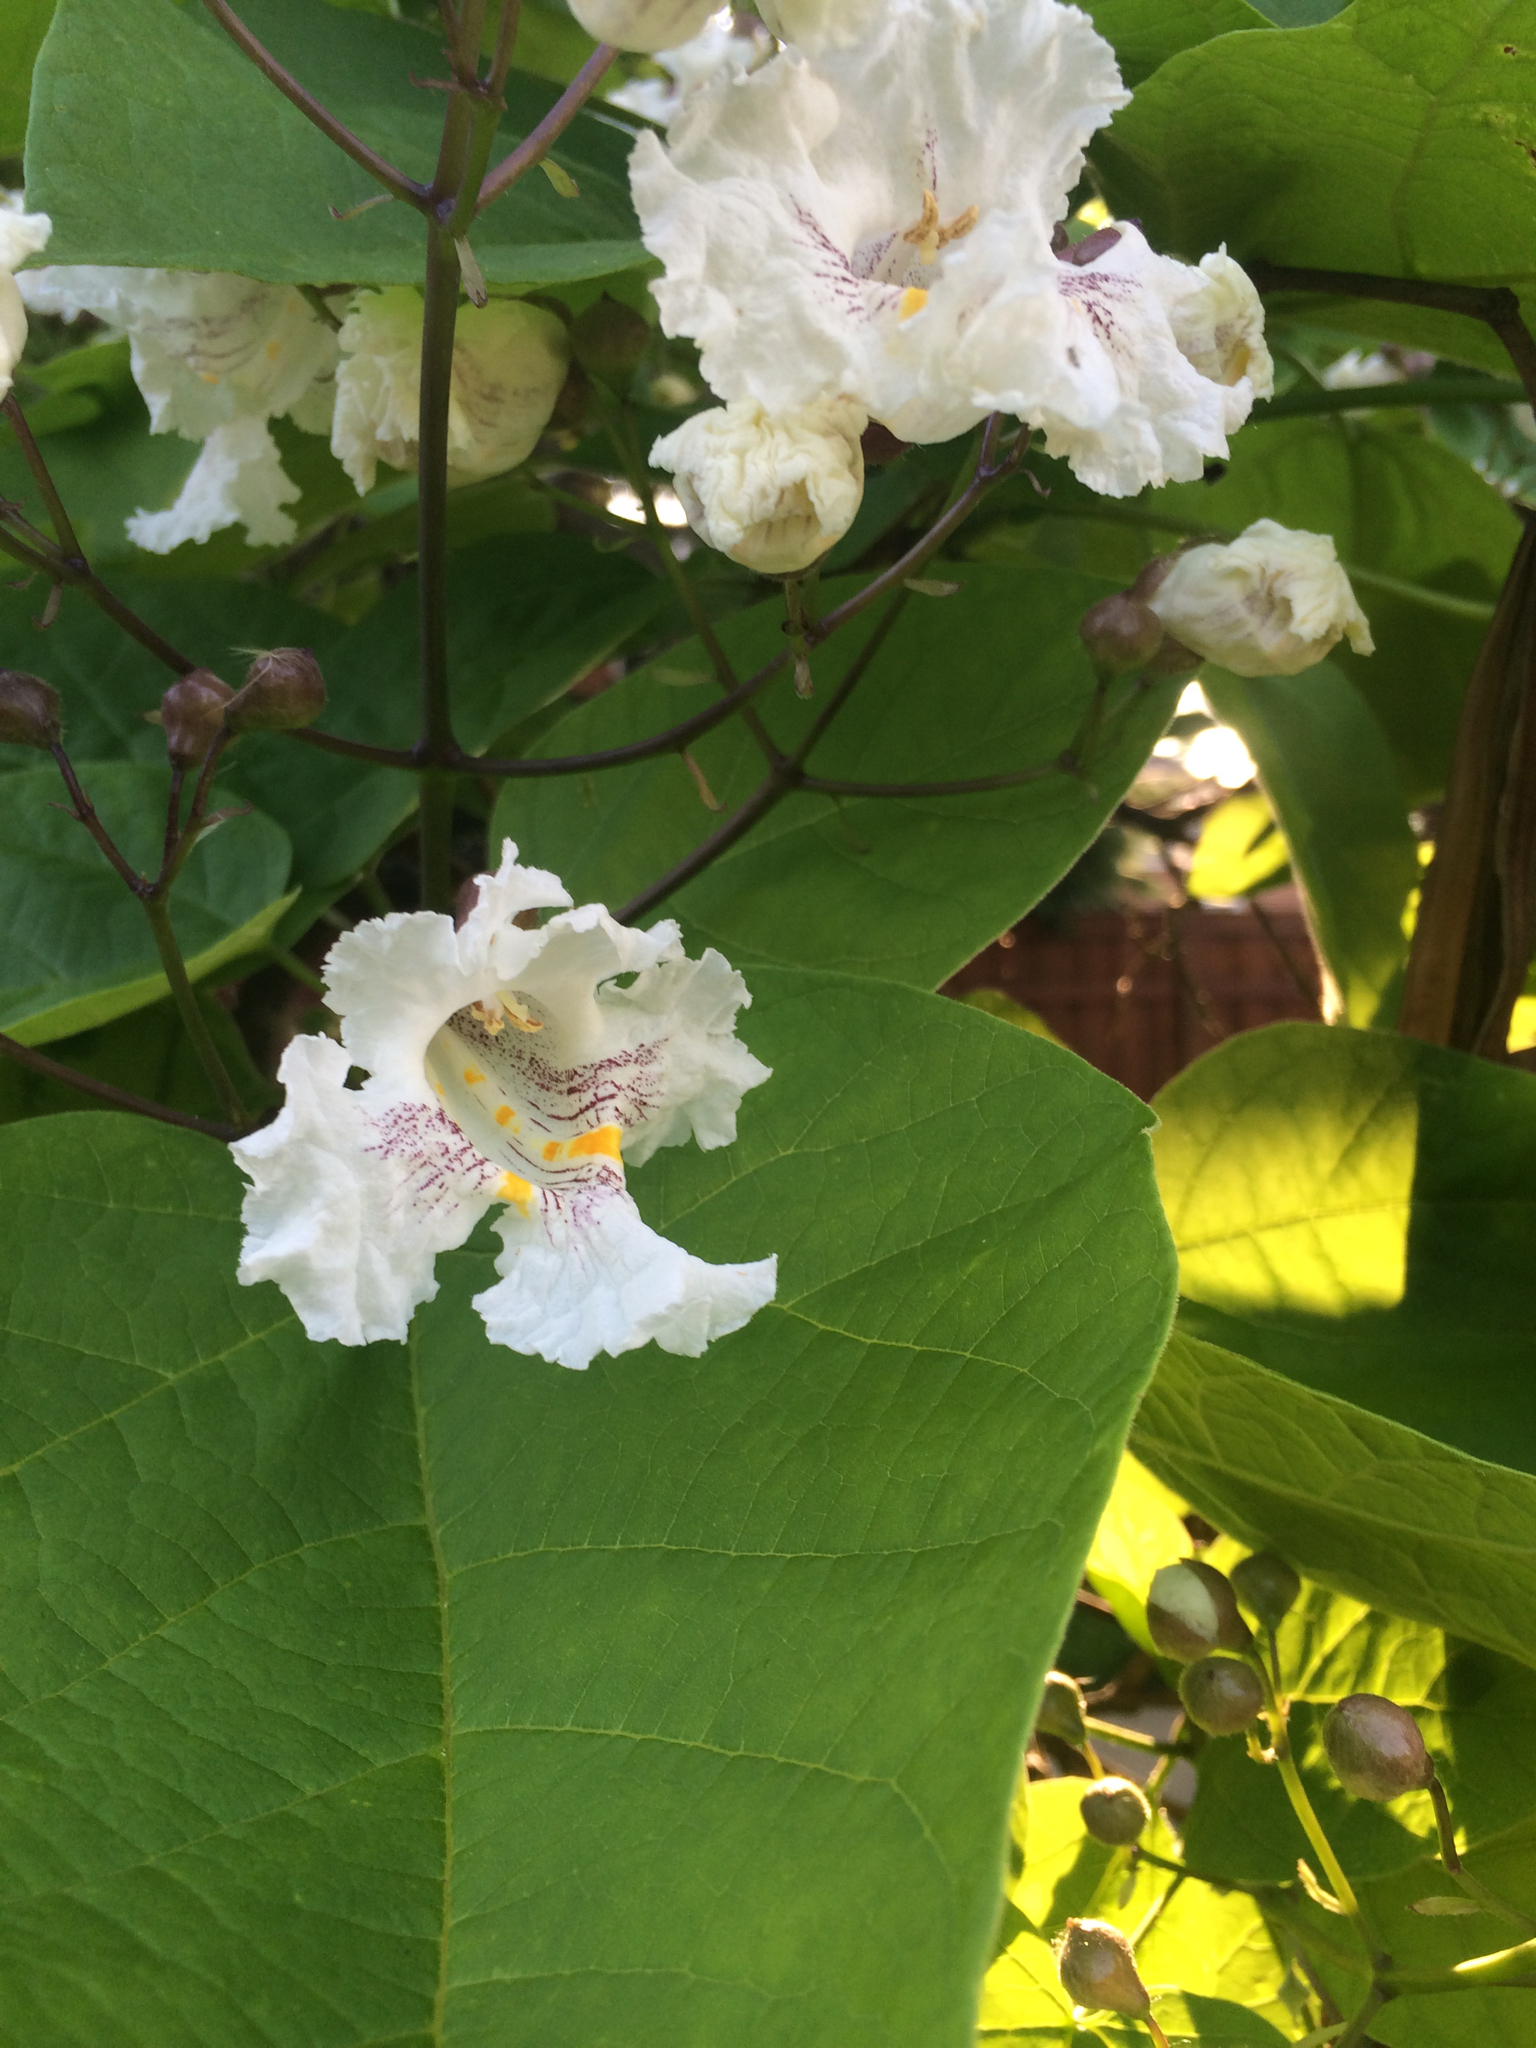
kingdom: Plantae
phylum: Tracheophyta
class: Magnoliopsida
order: Lamiales
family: Bignoniaceae
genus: Catalpa
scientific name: Catalpa speciosa
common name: Northern catalpa
